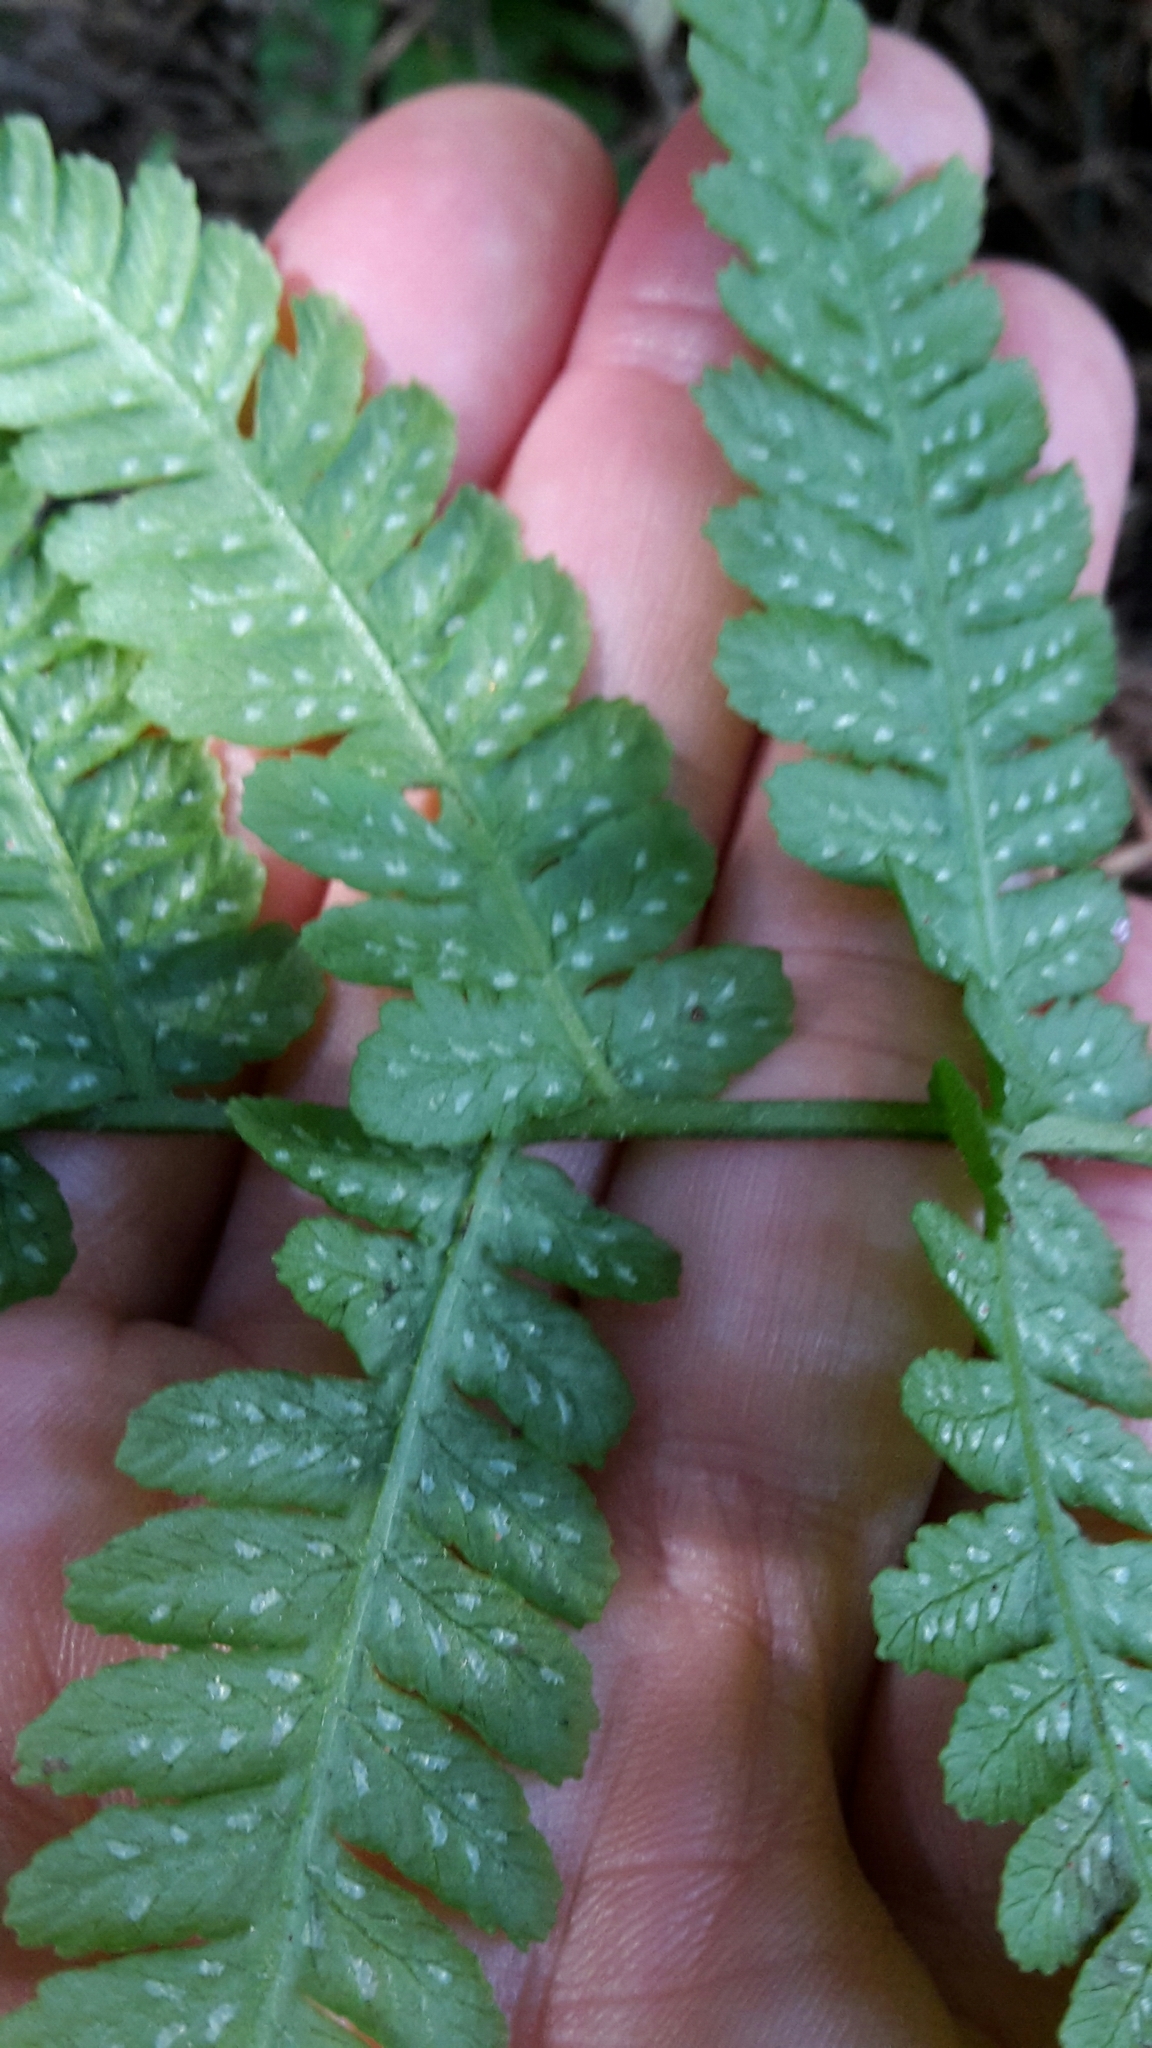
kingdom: Plantae
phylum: Tracheophyta
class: Polypodiopsida
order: Polypodiales
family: Athyriaceae
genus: Deparia
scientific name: Deparia petersenii
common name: Japanese false spleenwort
